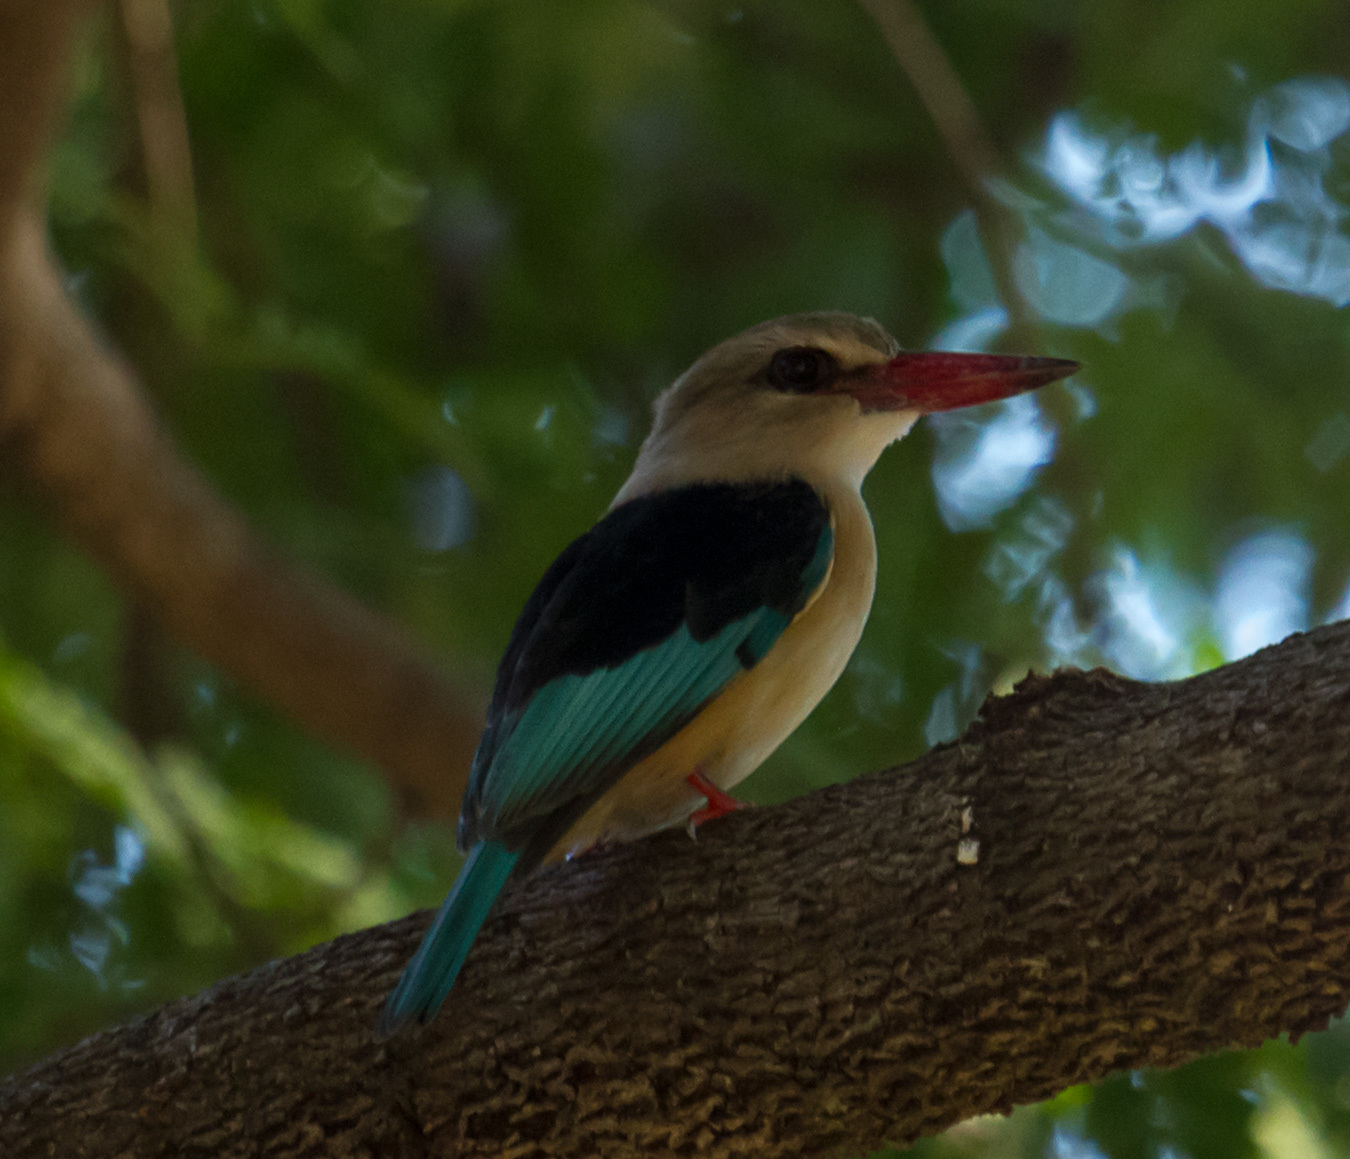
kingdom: Animalia
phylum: Chordata
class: Aves
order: Coraciiformes
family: Alcedinidae
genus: Halcyon
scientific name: Halcyon albiventris
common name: Brown-hooded kingfisher
